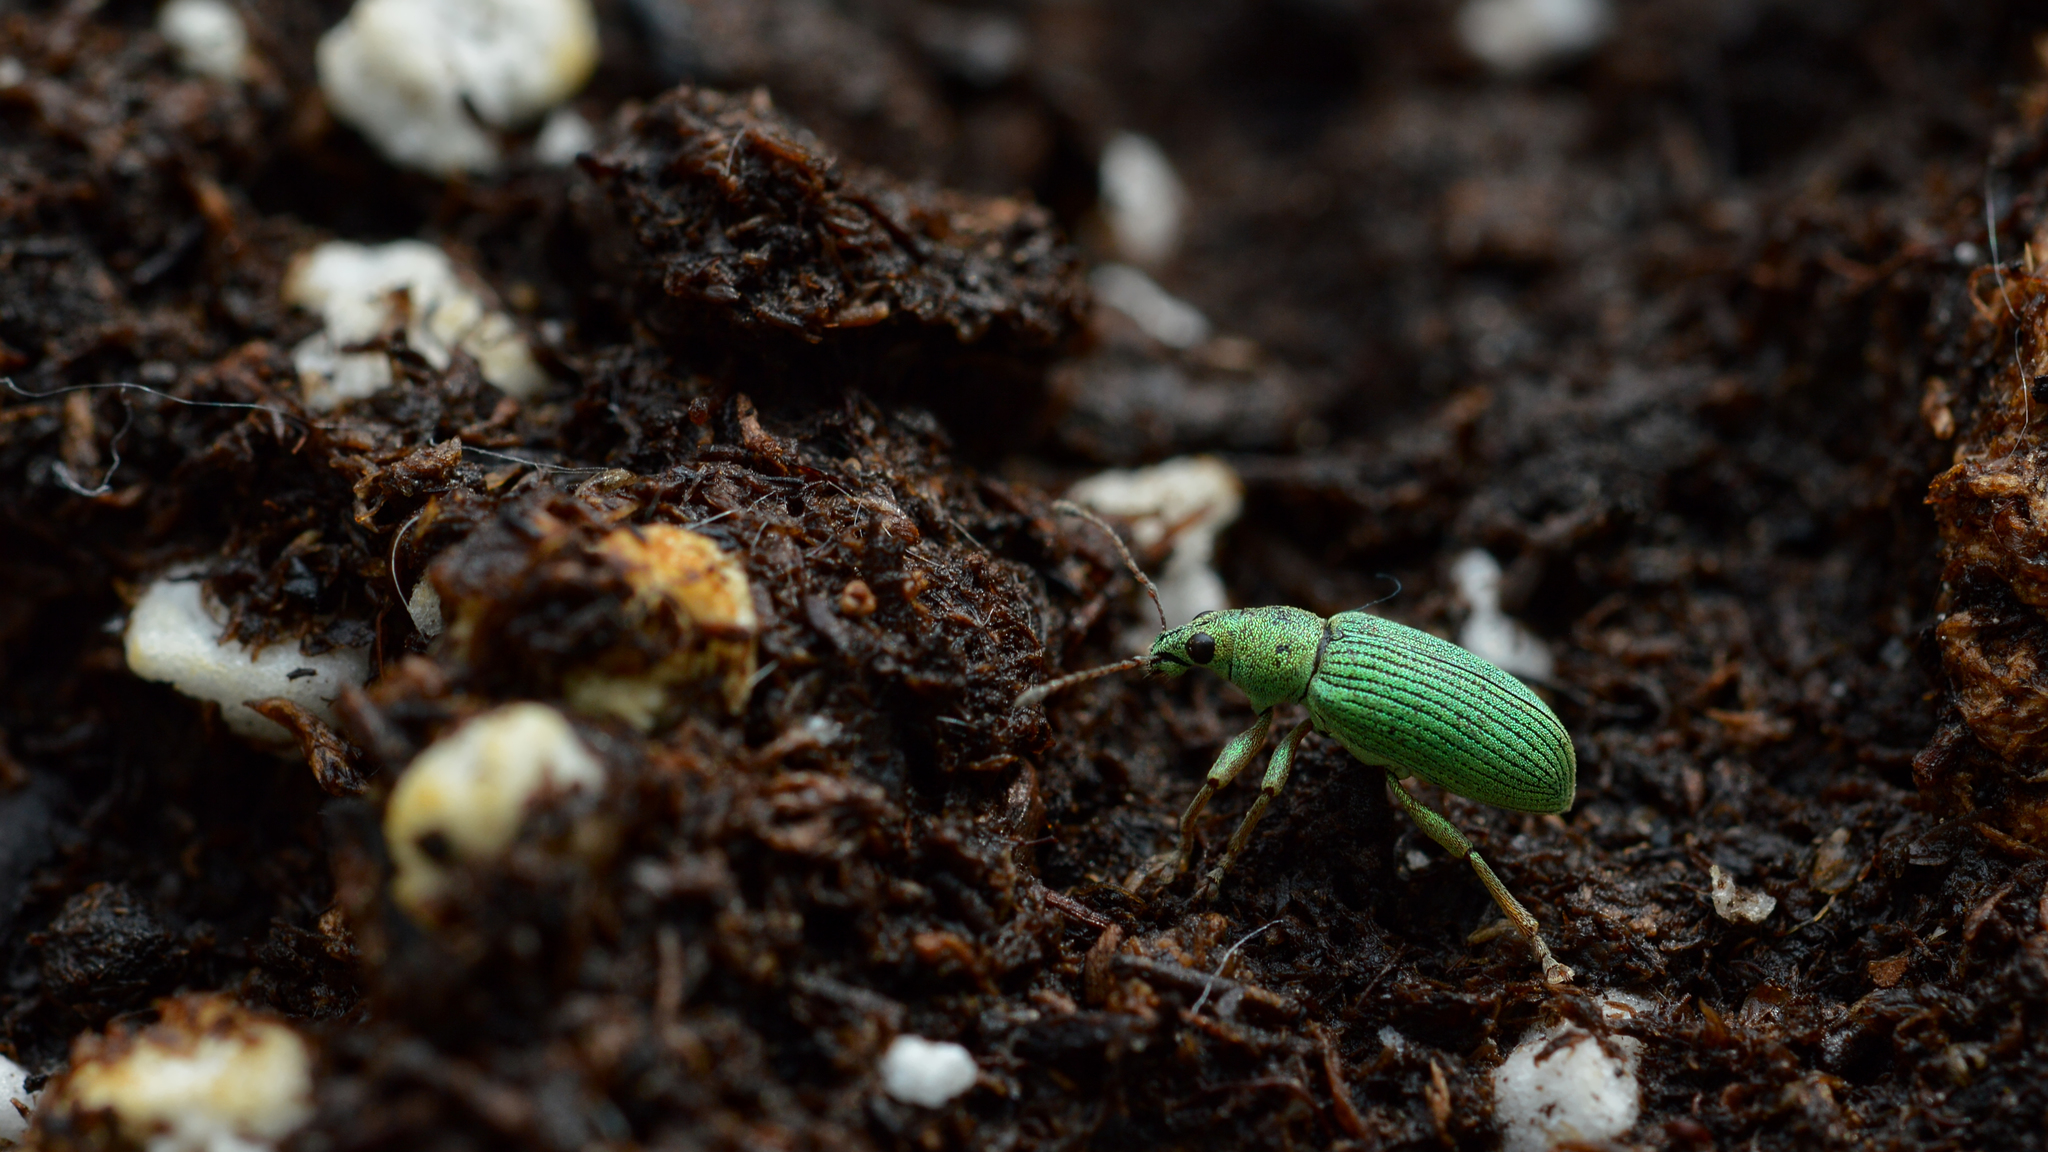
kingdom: Animalia
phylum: Arthropoda
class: Insecta
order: Coleoptera
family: Curculionidae
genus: Polydrusus
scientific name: Polydrusus formosus
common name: Weevil
